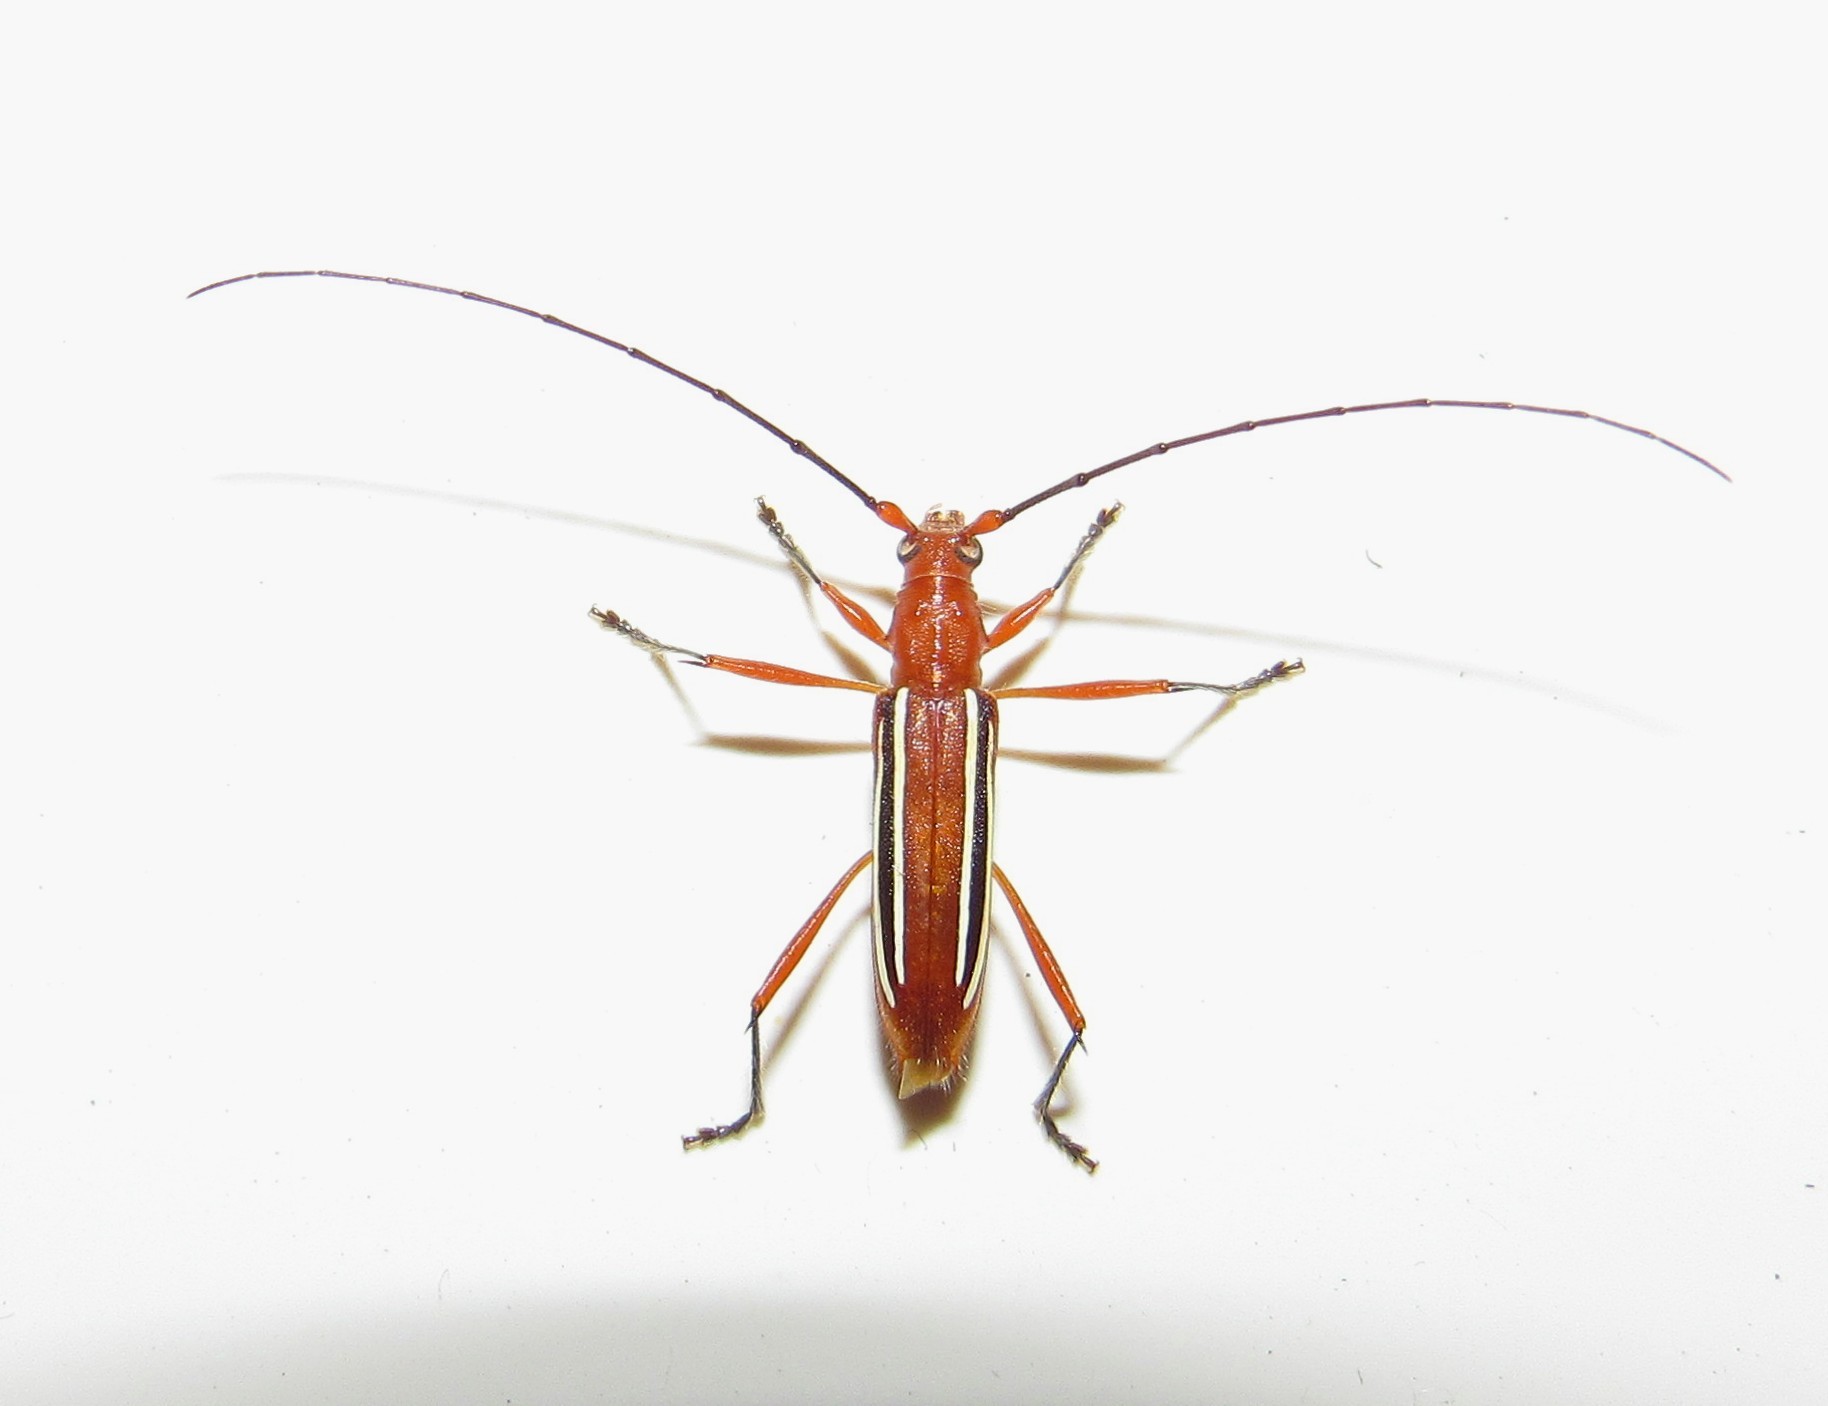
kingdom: Animalia
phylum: Arthropoda
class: Insecta
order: Coleoptera
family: Cerambycidae
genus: Erosida
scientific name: Erosida gratiosa
